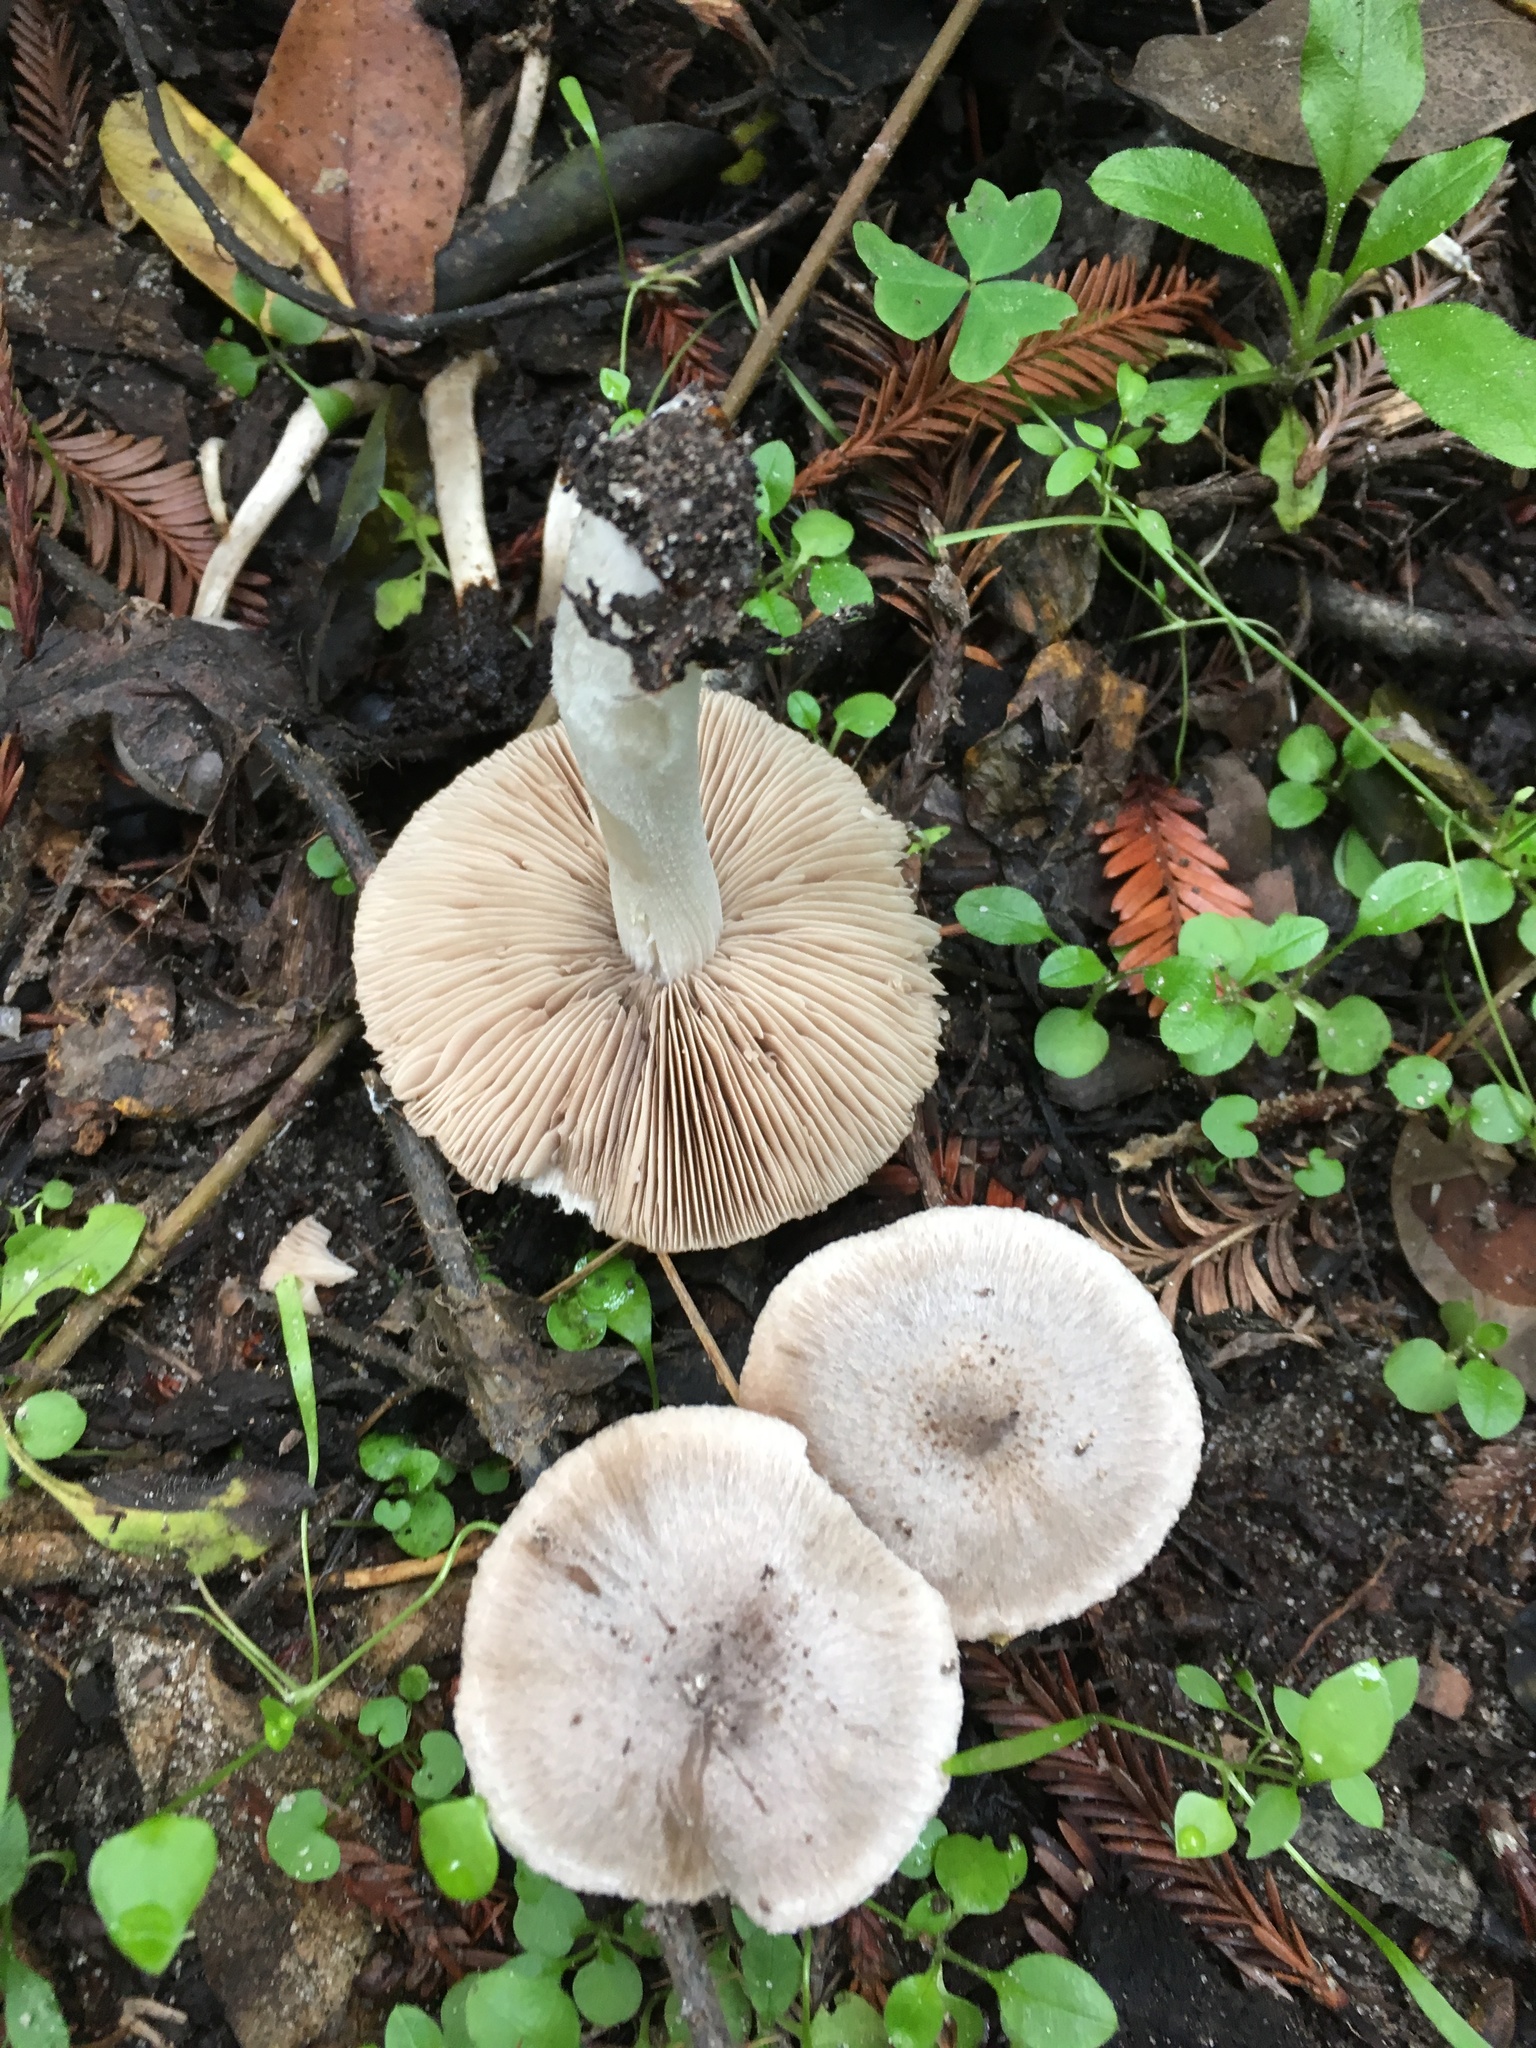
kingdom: Fungi
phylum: Basidiomycota
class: Agaricomycetes
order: Agaricales
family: Psathyrellaceae
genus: Psathyrella
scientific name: Psathyrella uliginicola
